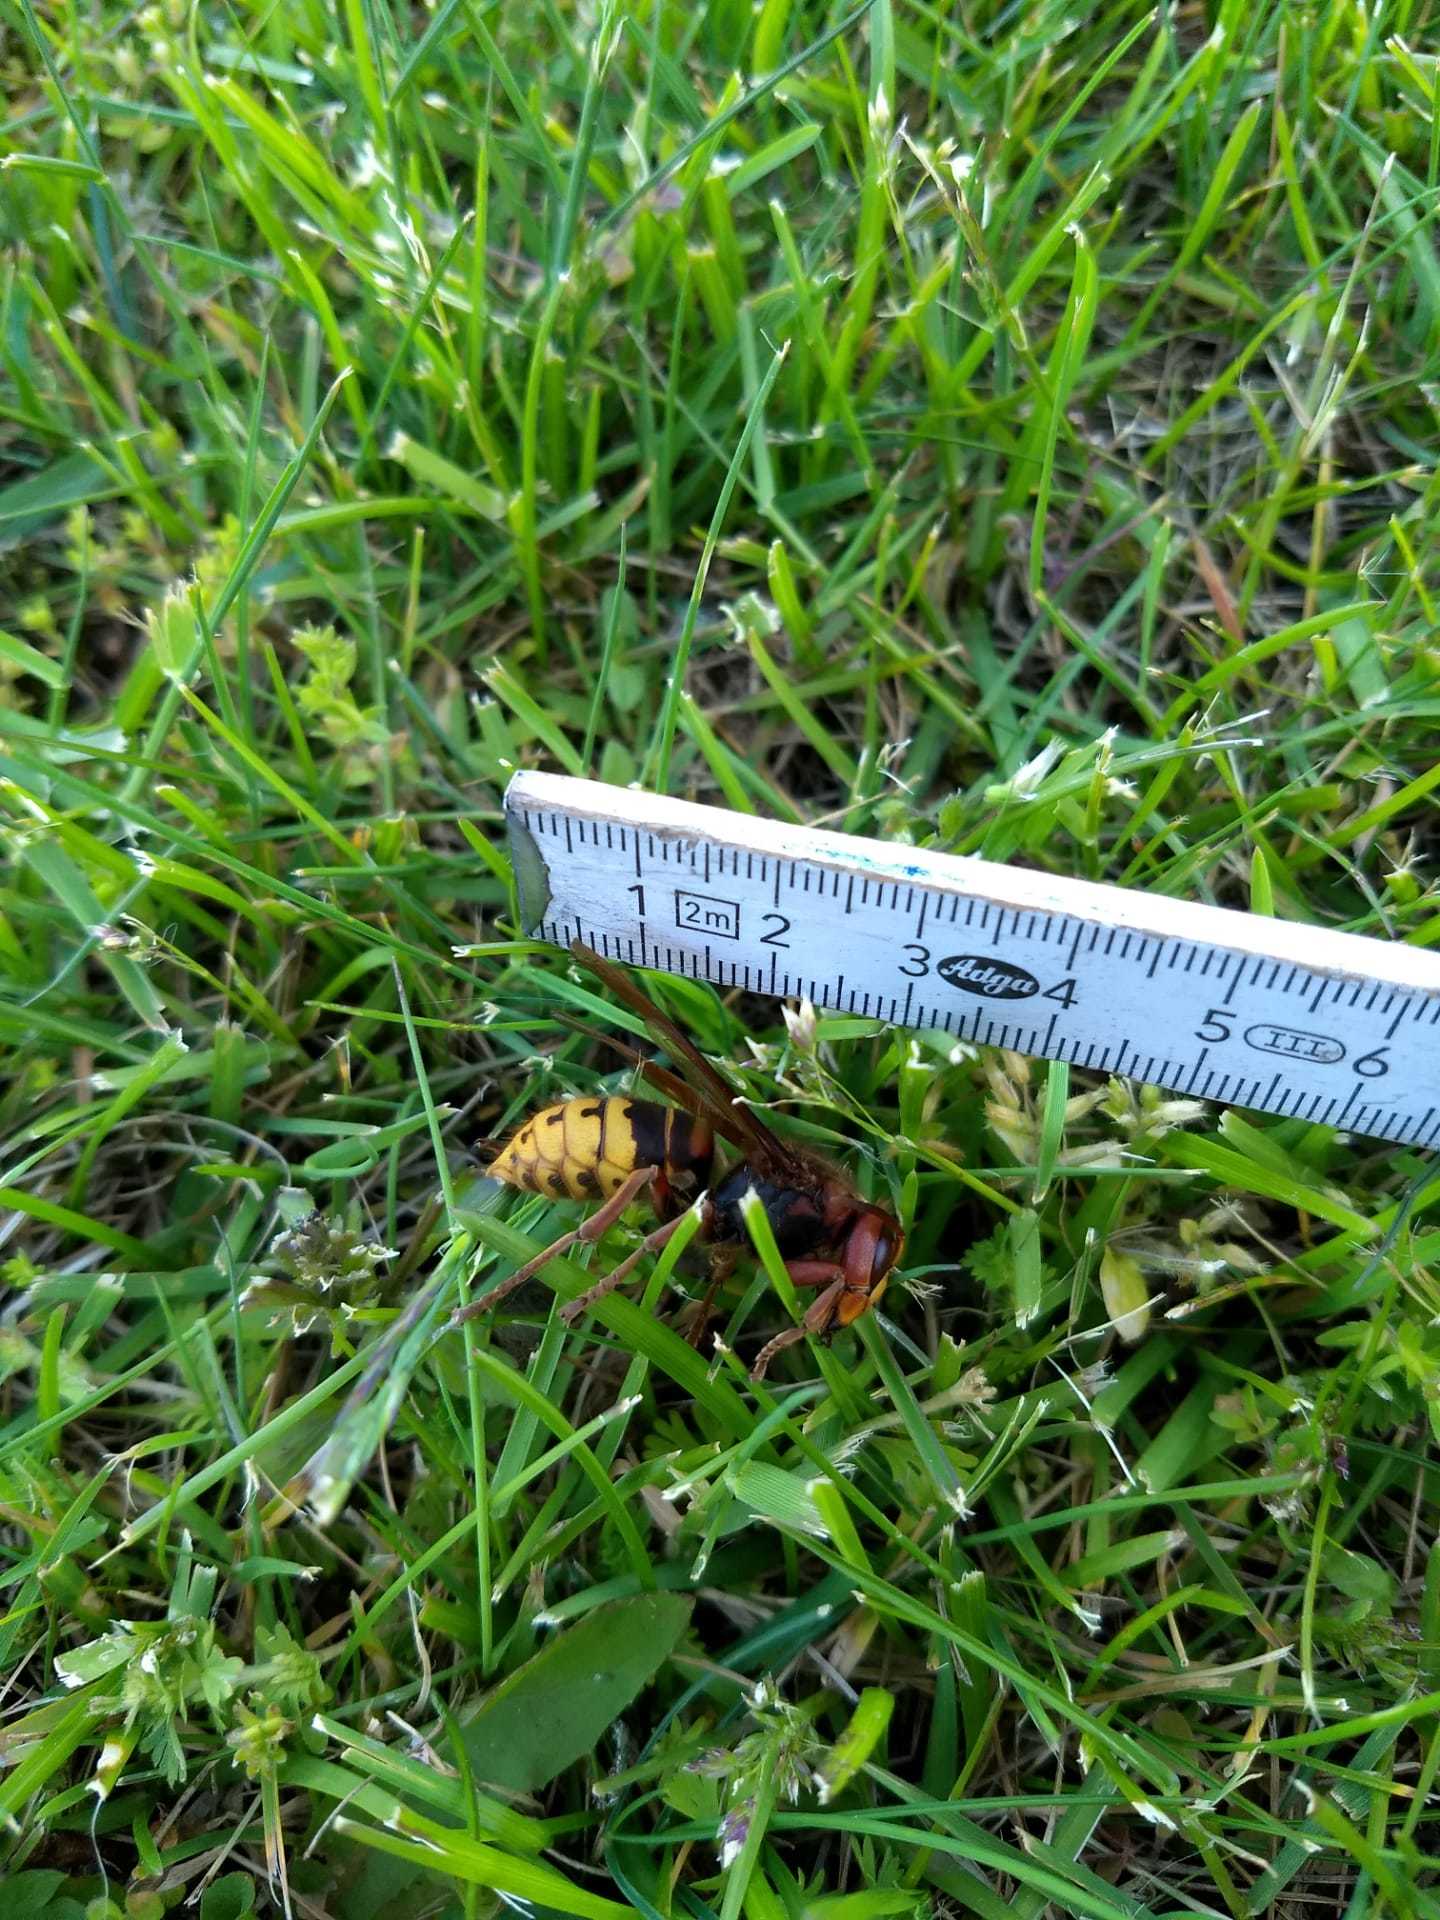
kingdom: Animalia
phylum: Arthropoda
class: Insecta
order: Hymenoptera
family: Vespidae
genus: Vespa
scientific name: Vespa crabro
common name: Hornet
